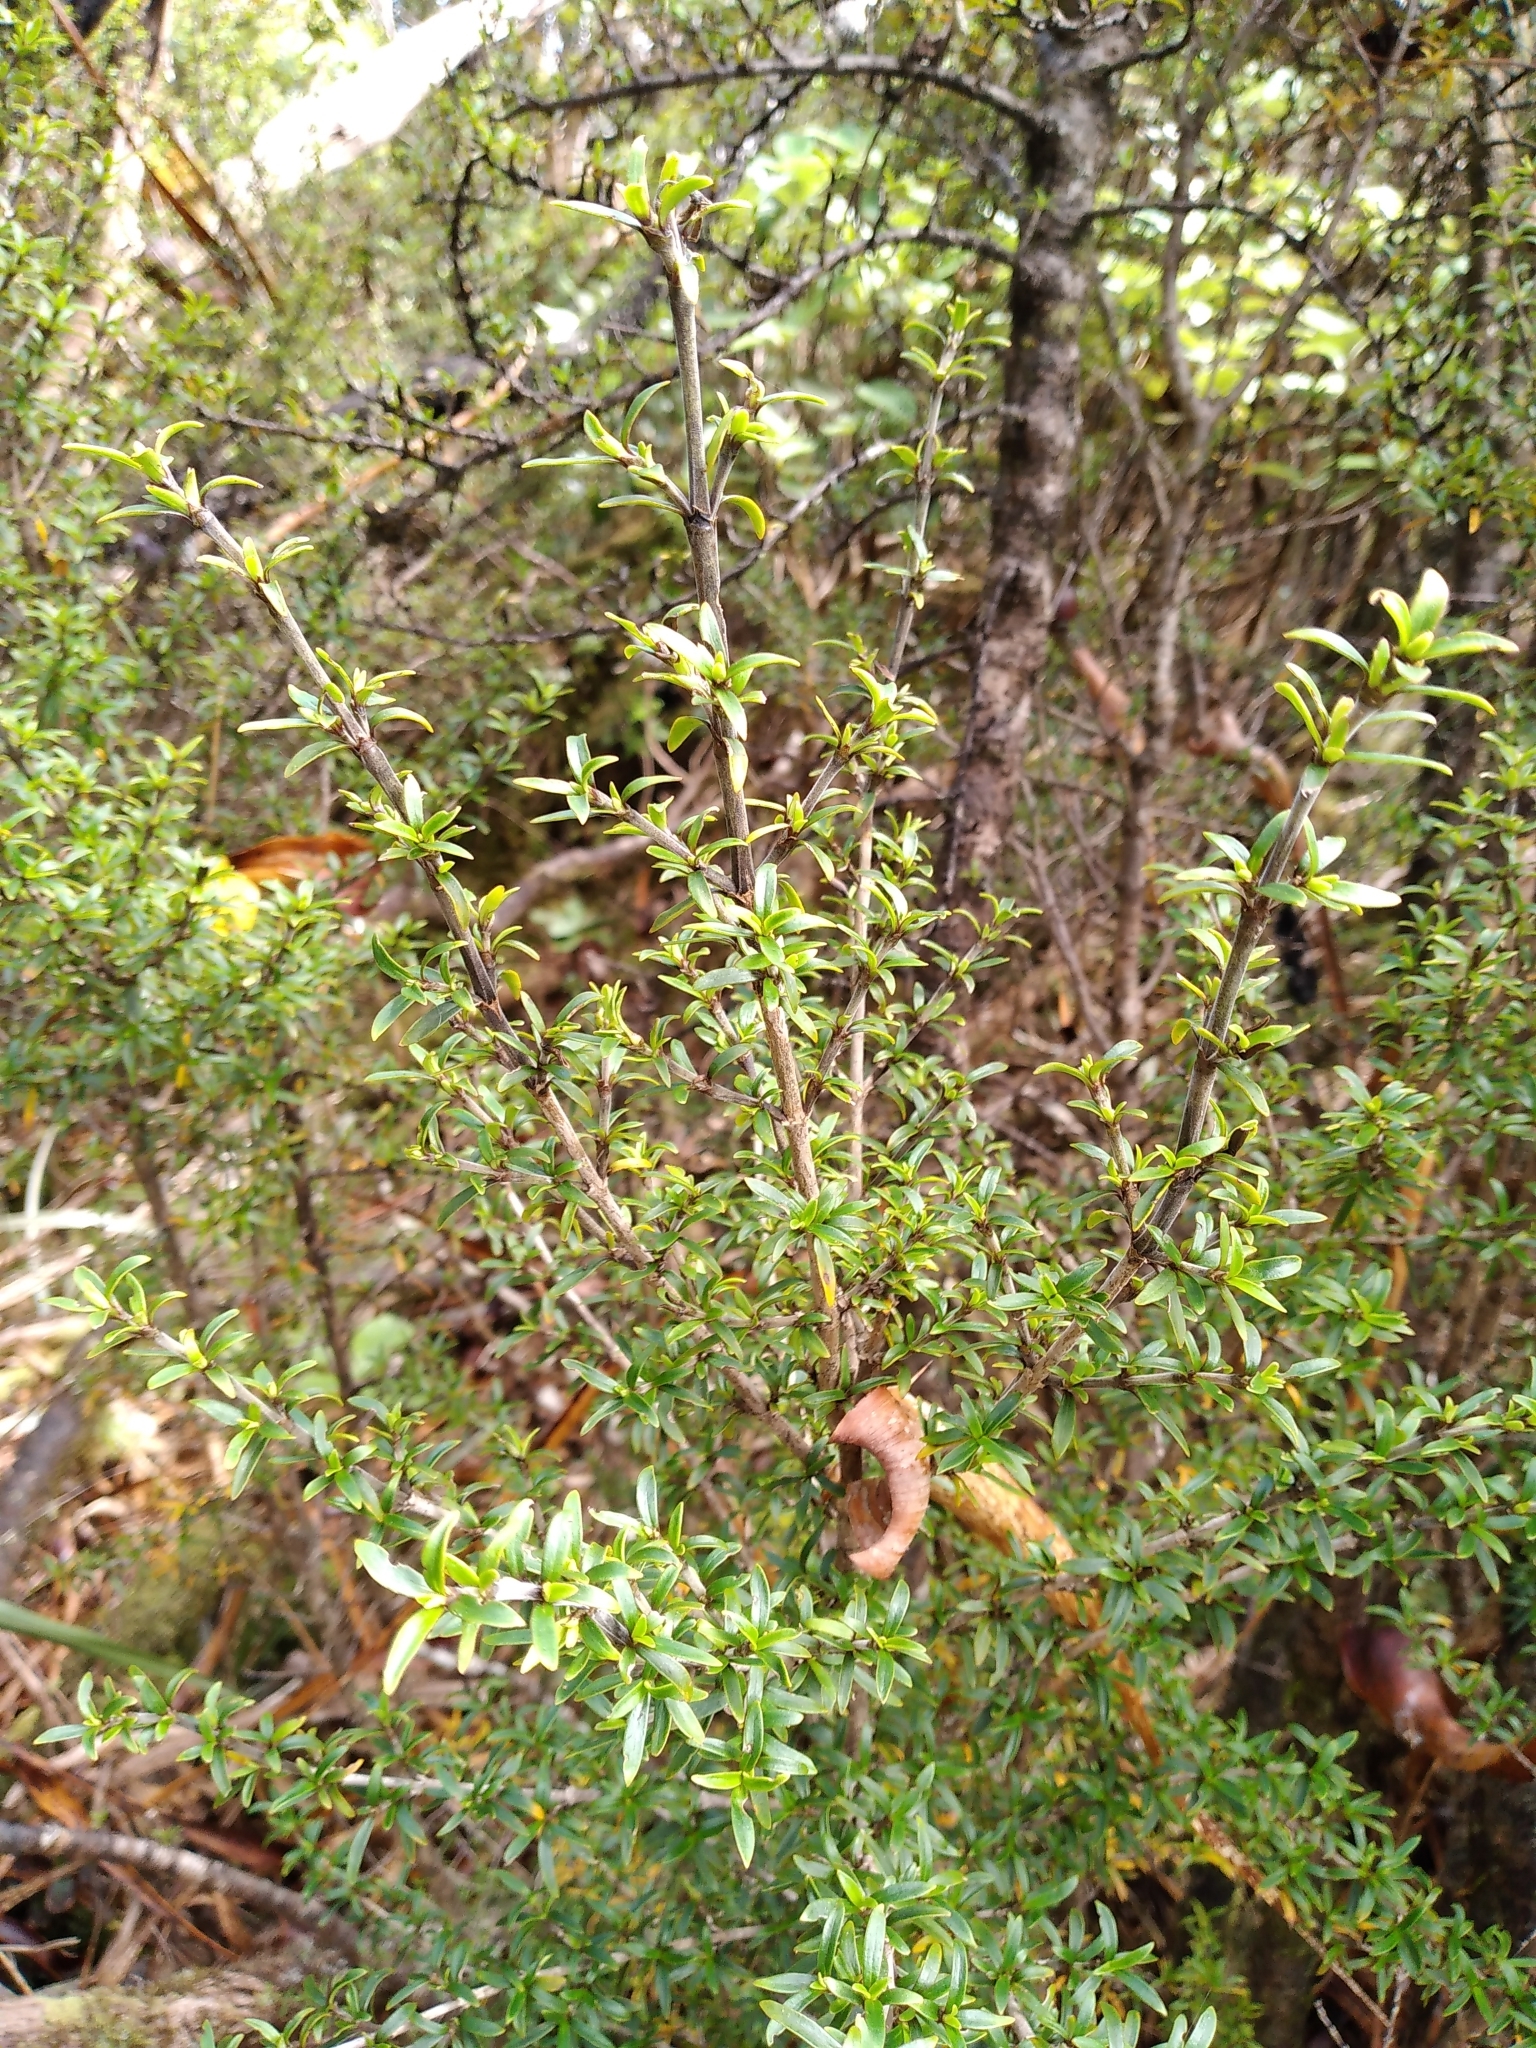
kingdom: Plantae
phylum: Tracheophyta
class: Magnoliopsida
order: Gentianales
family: Rubiaceae
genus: Coprosma
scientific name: Coprosma pseudocuneata
